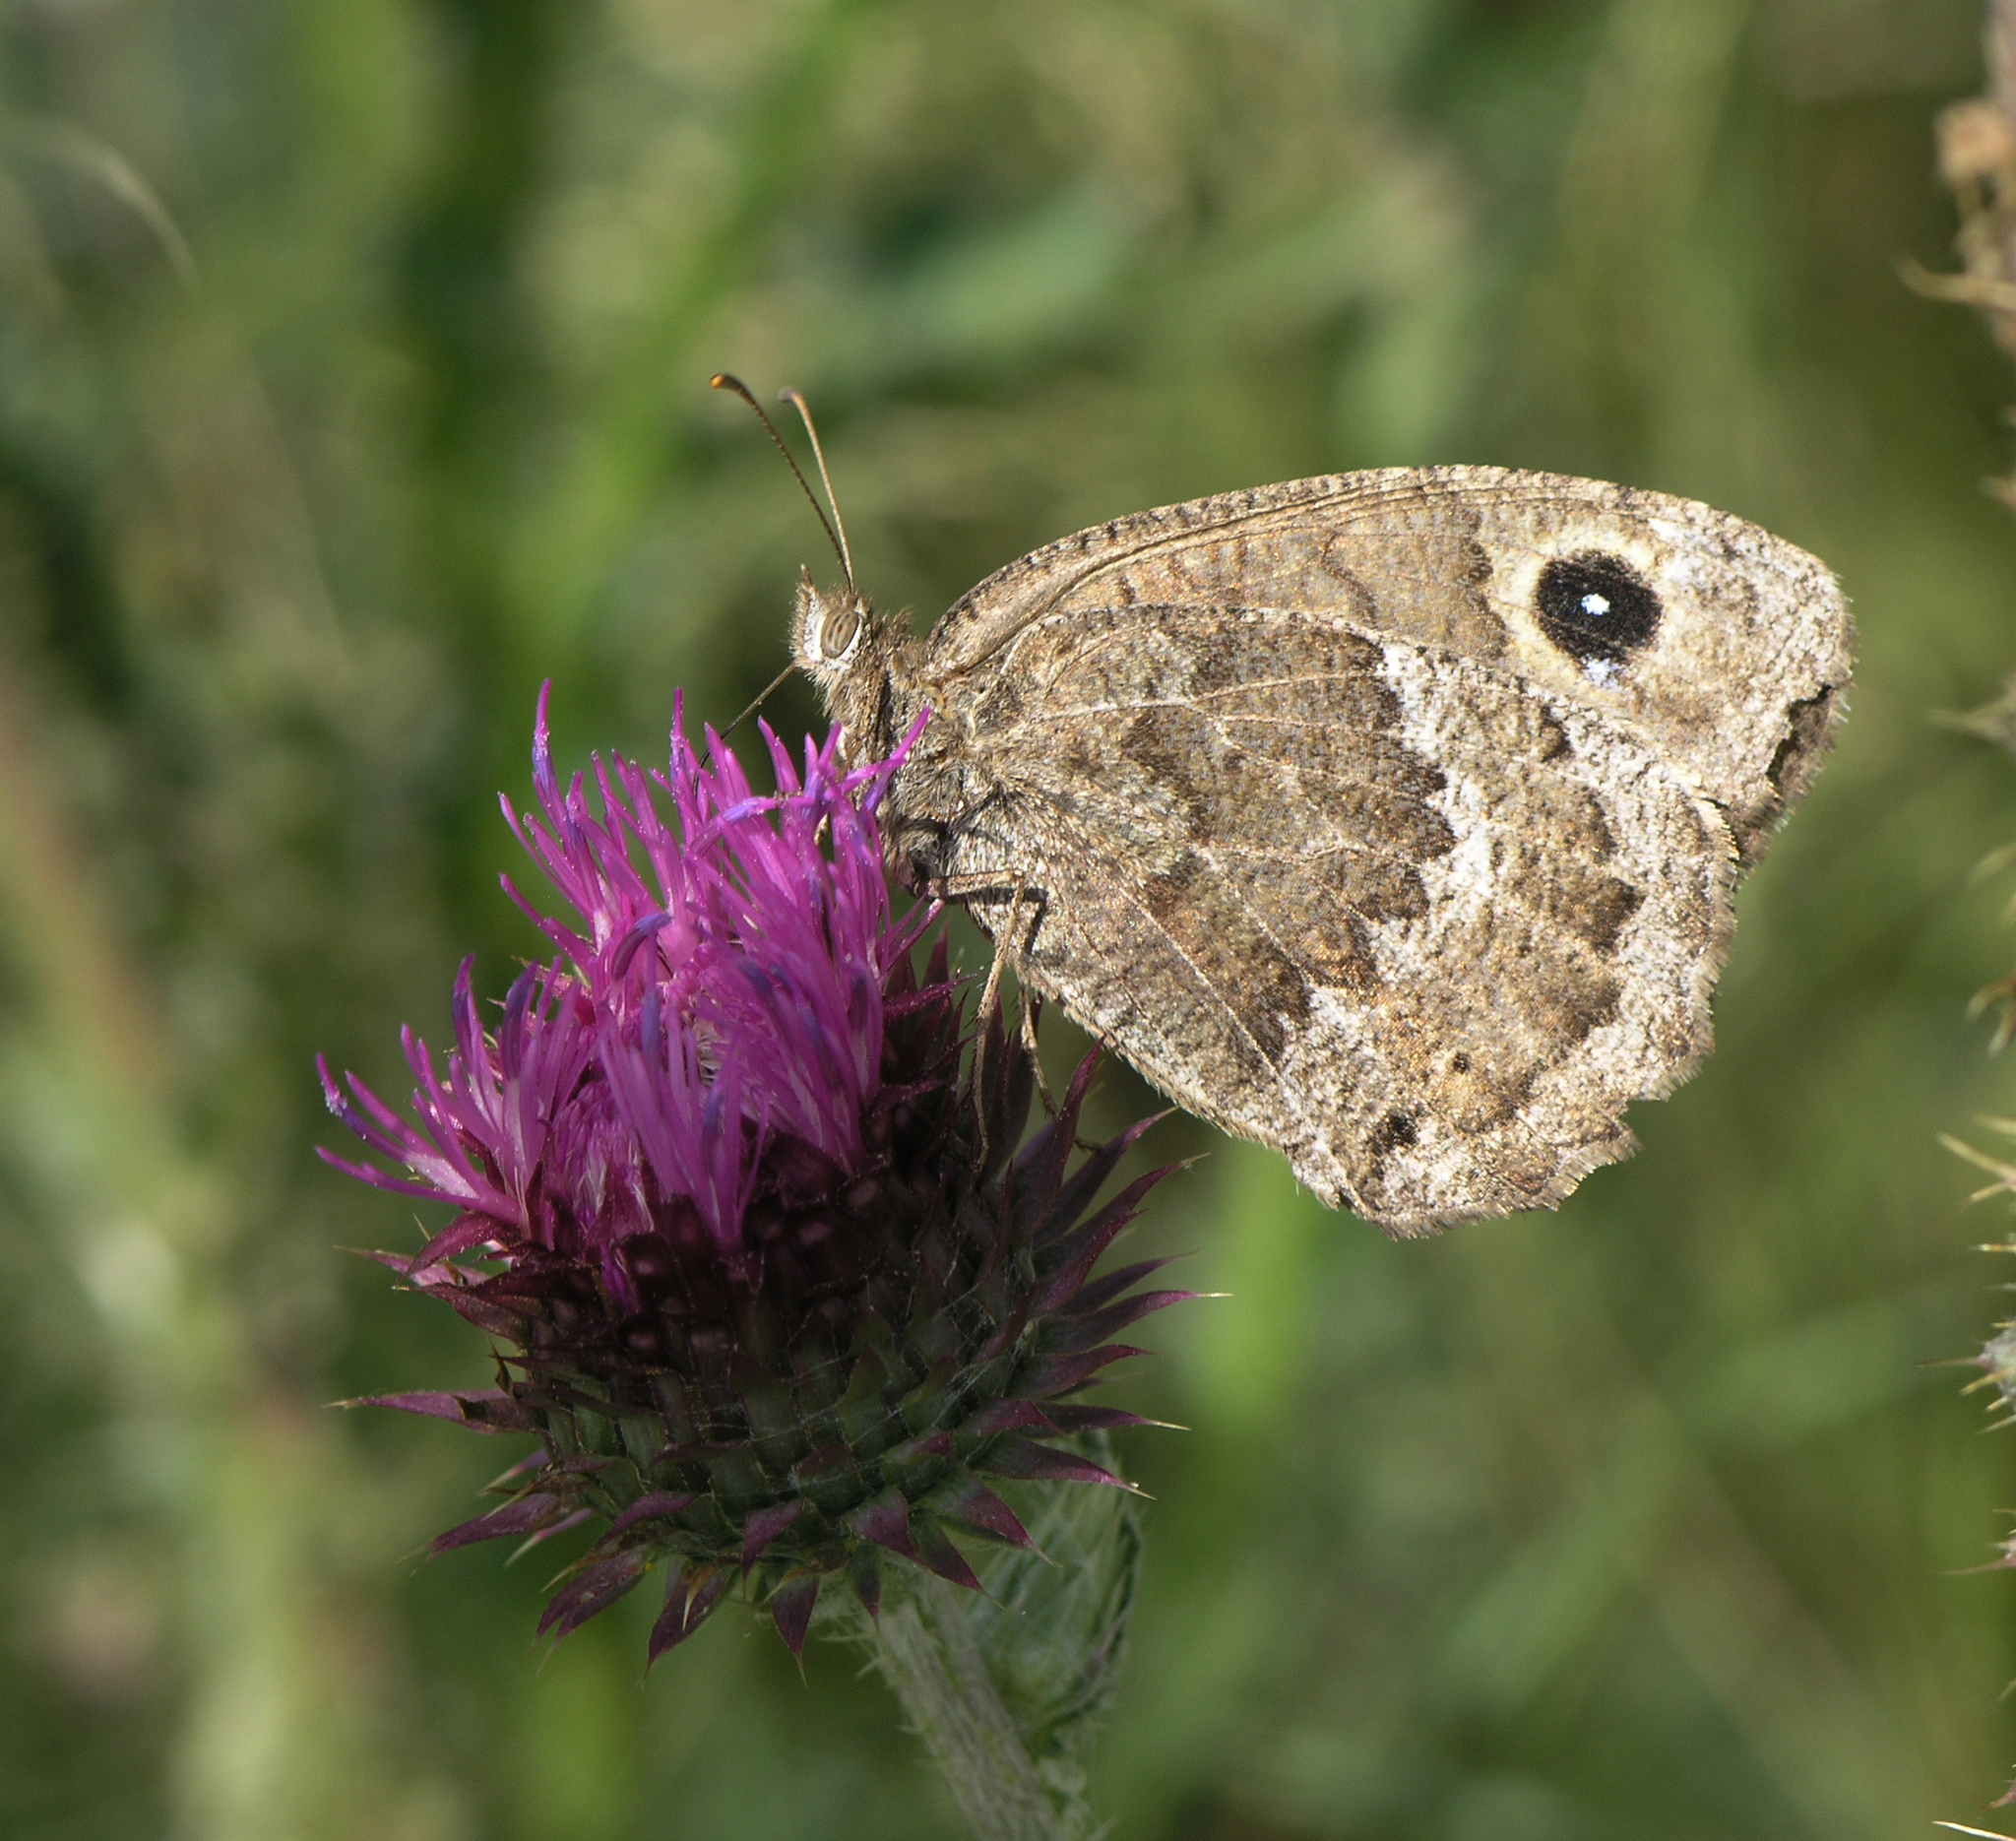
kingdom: Animalia
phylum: Arthropoda
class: Insecta
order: Lepidoptera
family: Nymphalidae
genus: Satyrus
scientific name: Satyrus ferula
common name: Great sooty satyr
